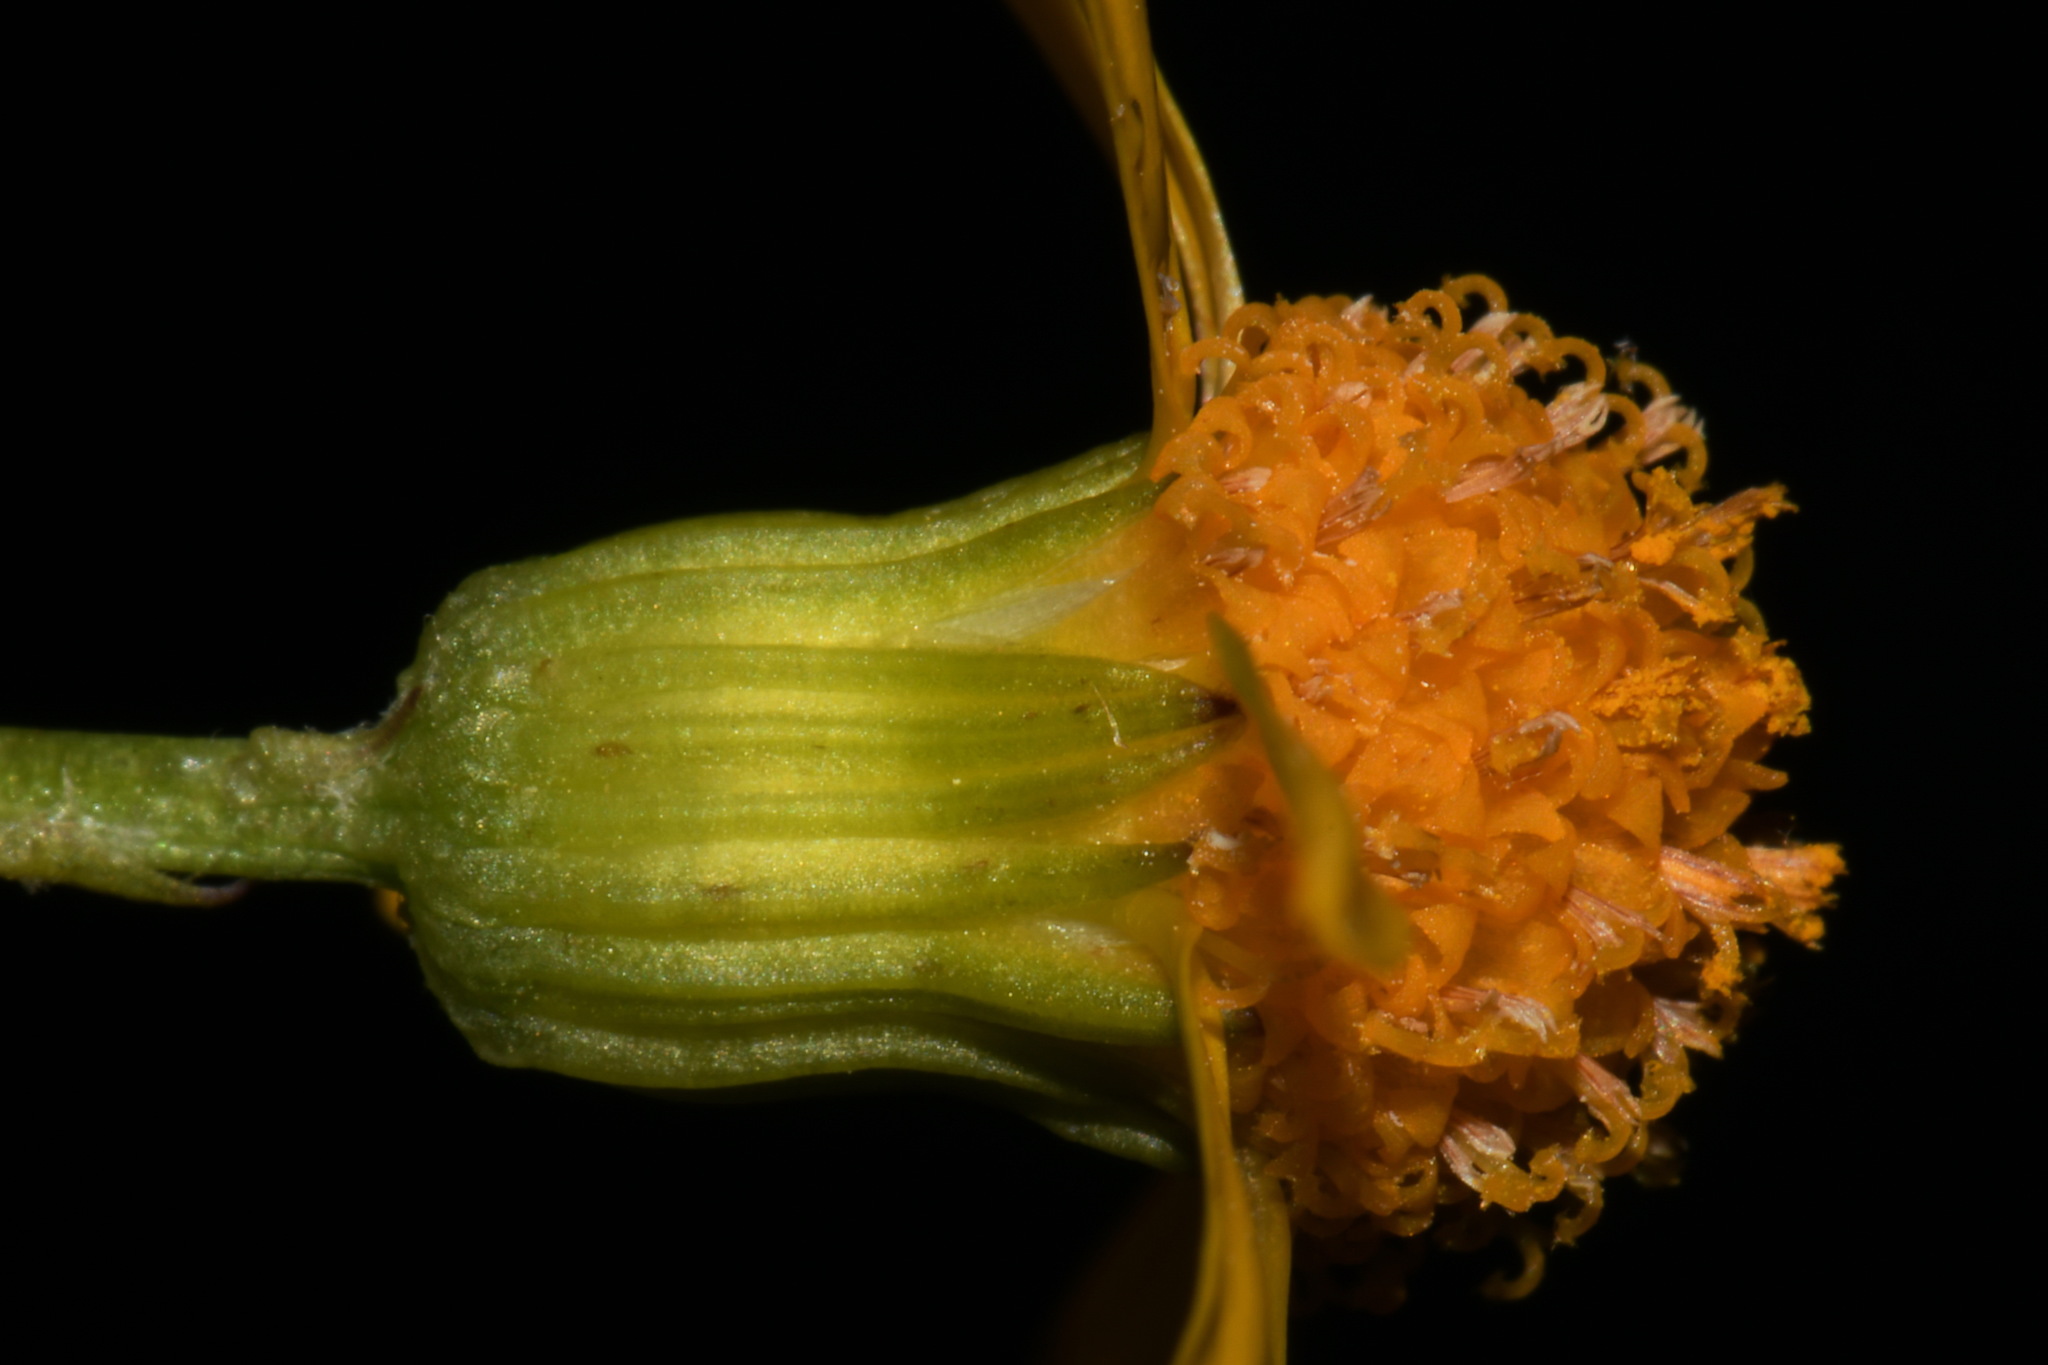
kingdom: Plantae
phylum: Tracheophyta
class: Magnoliopsida
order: Asterales
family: Asteraceae
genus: Packera
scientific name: Packera crawfordii
